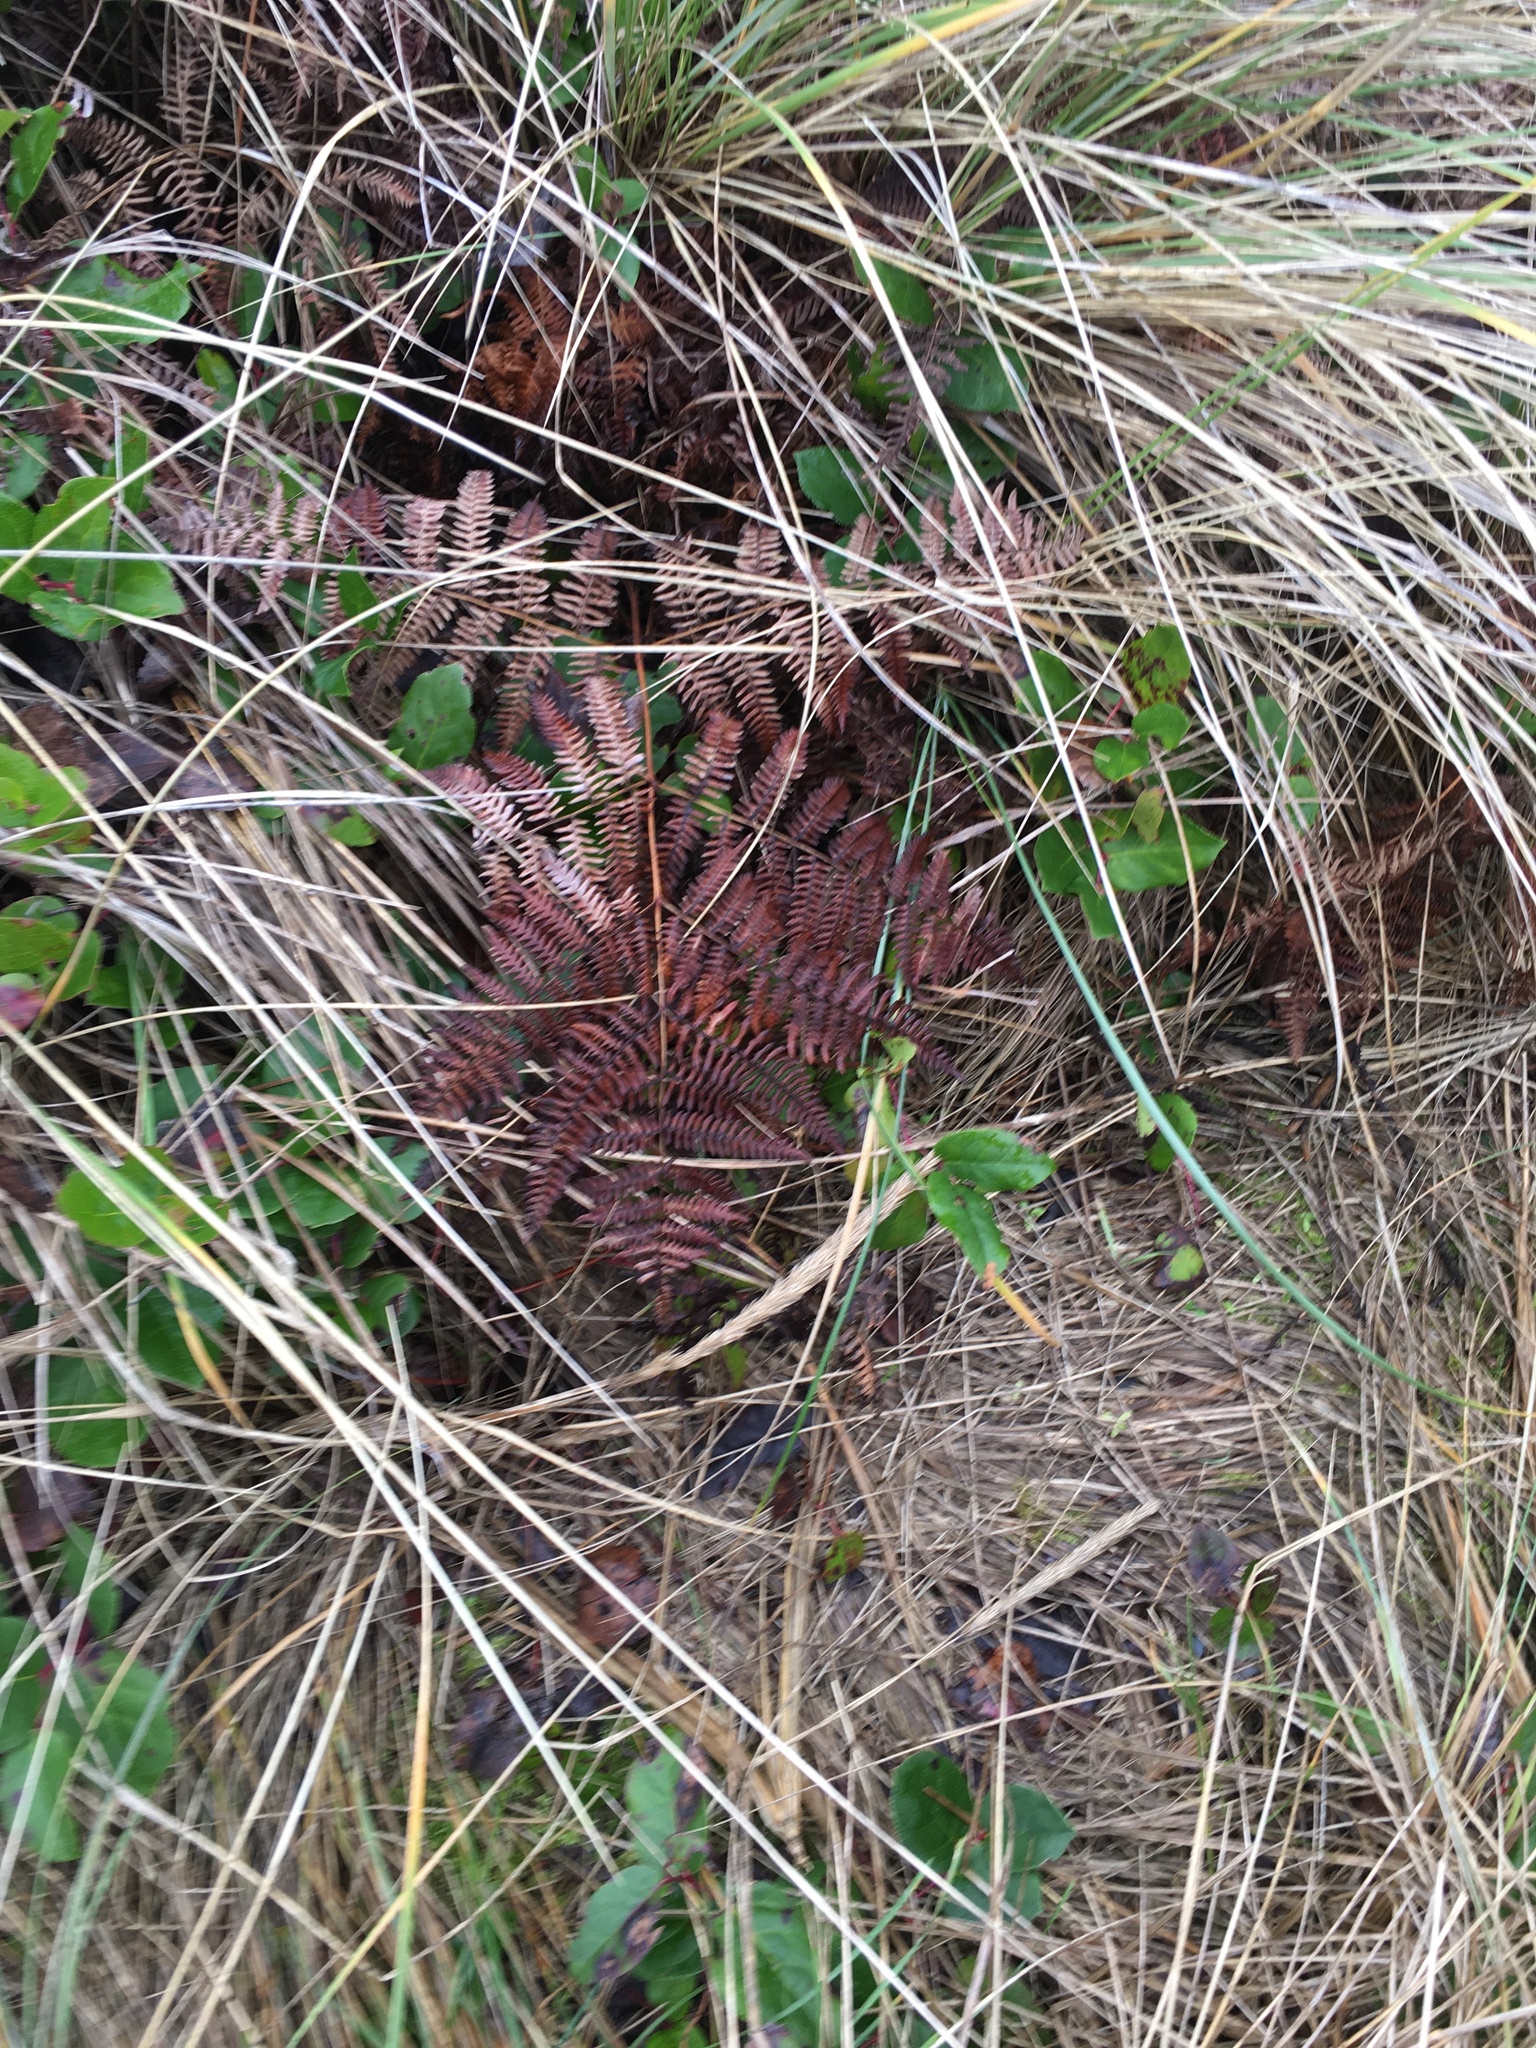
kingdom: Plantae
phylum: Tracheophyta
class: Polypodiopsida
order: Polypodiales
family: Dennstaedtiaceae
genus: Pteridium
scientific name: Pteridium aquilinum
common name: Bracken
